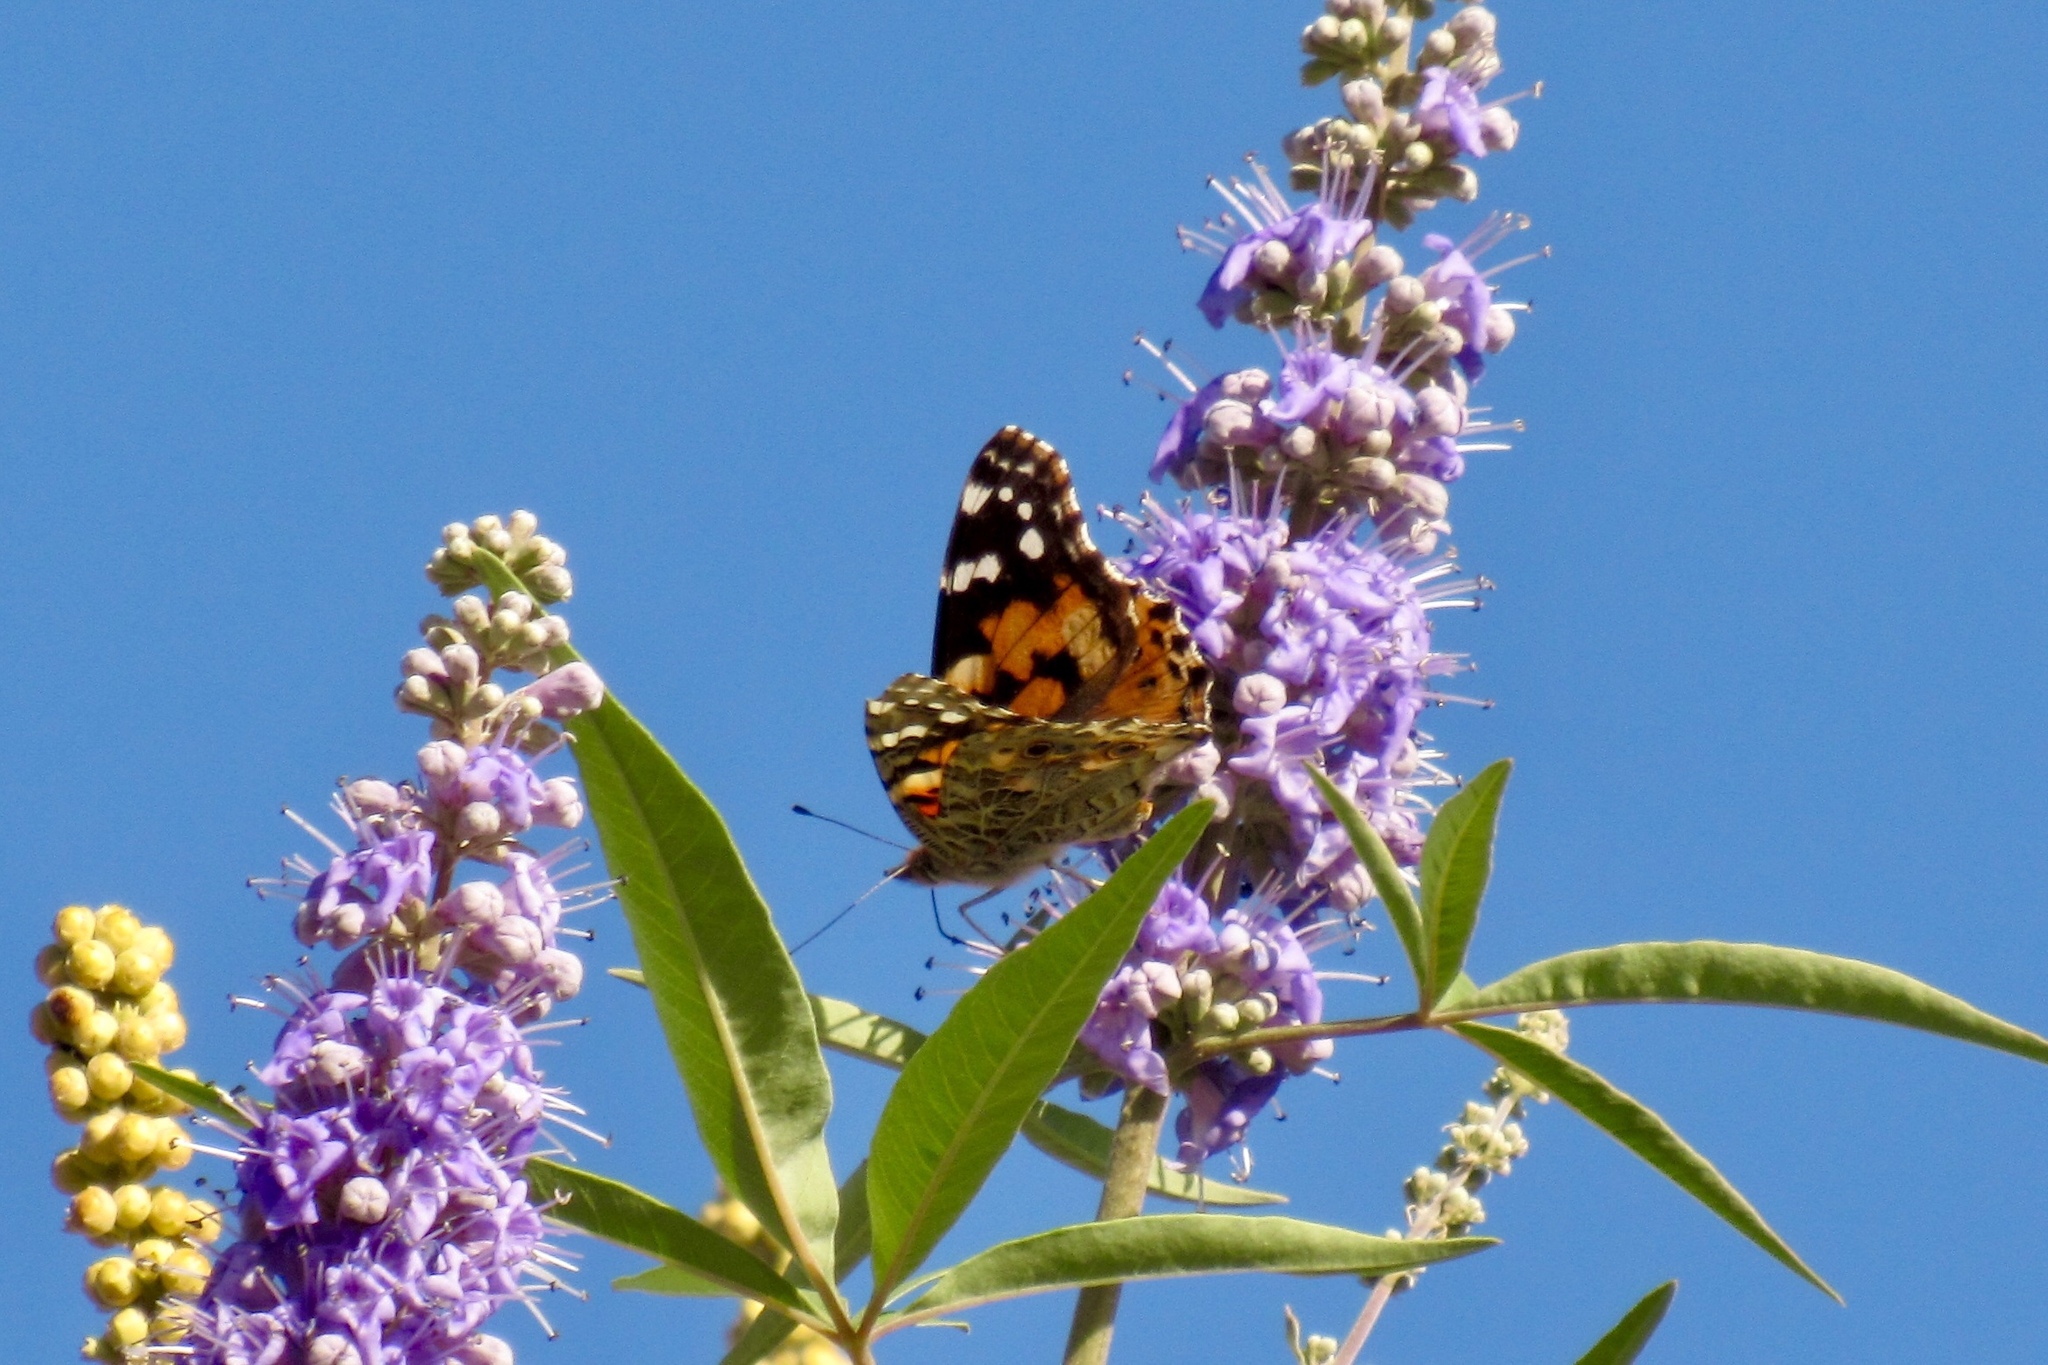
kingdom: Animalia
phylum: Arthropoda
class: Insecta
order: Lepidoptera
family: Nymphalidae
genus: Vanessa
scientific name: Vanessa cardui
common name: Painted lady
